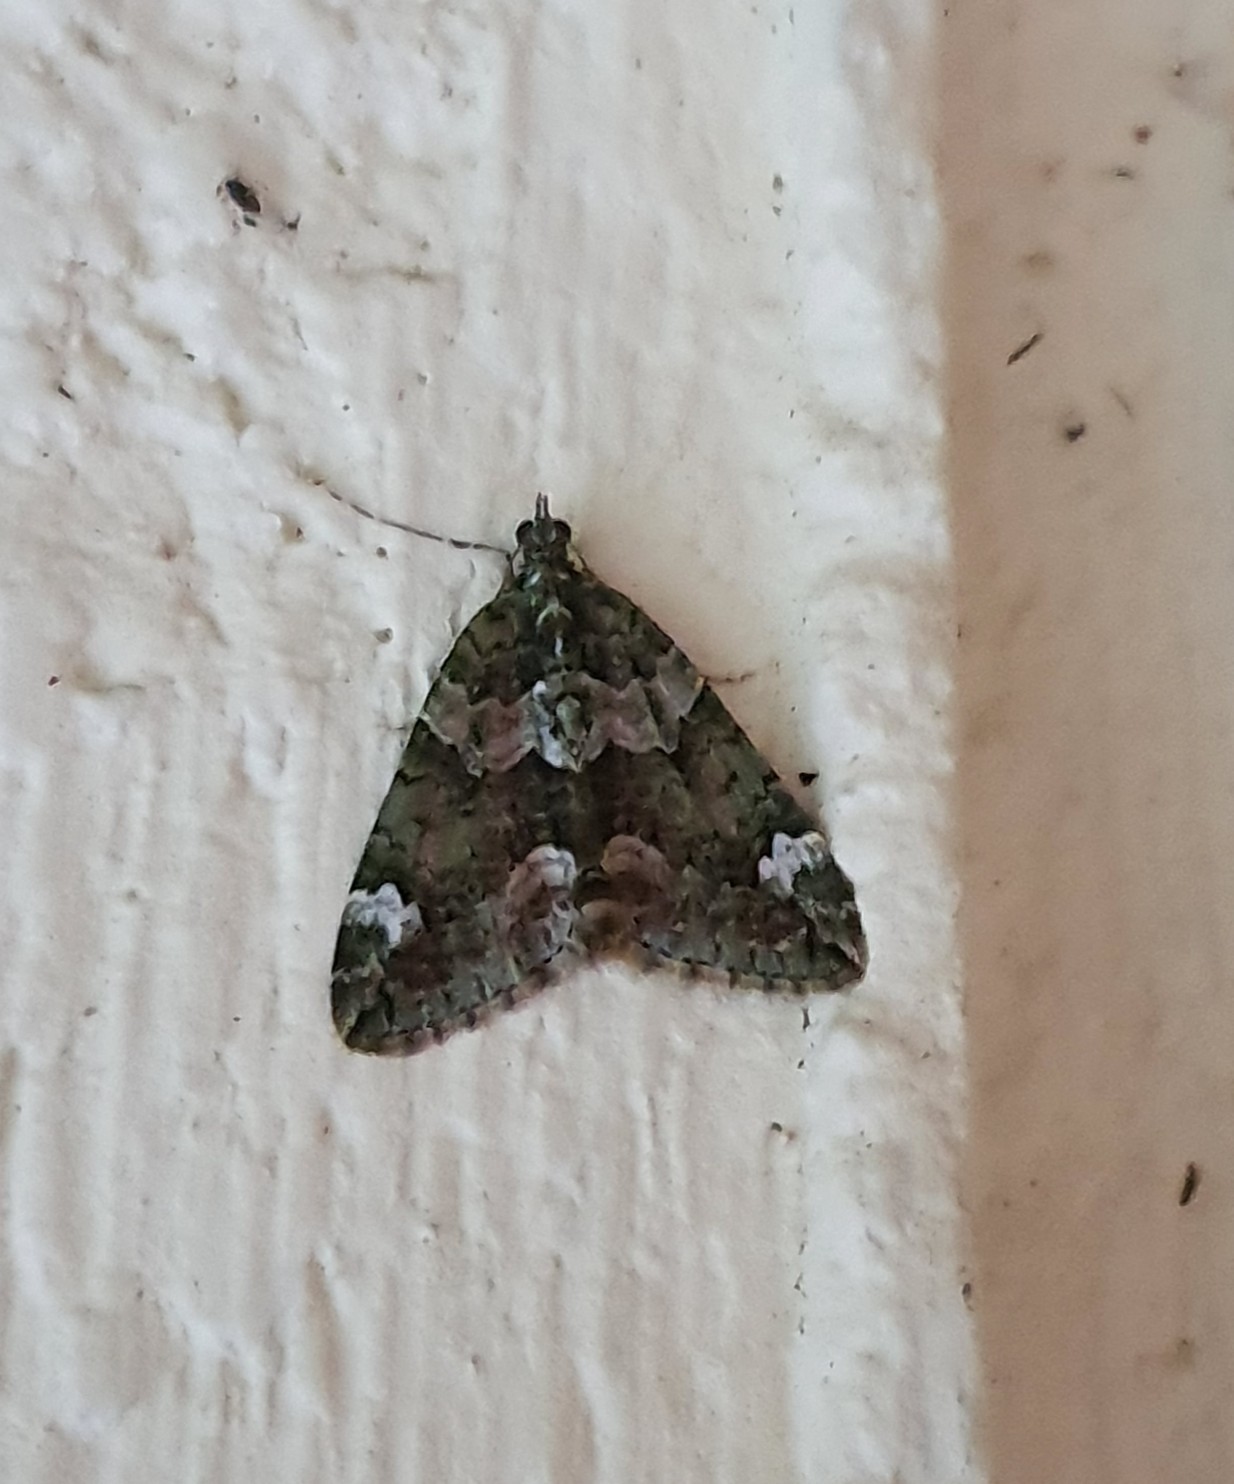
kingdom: Animalia
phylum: Arthropoda
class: Insecta
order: Lepidoptera
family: Geometridae
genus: Chloroclysta
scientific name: Chloroclysta siterata
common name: Red-green carpet
